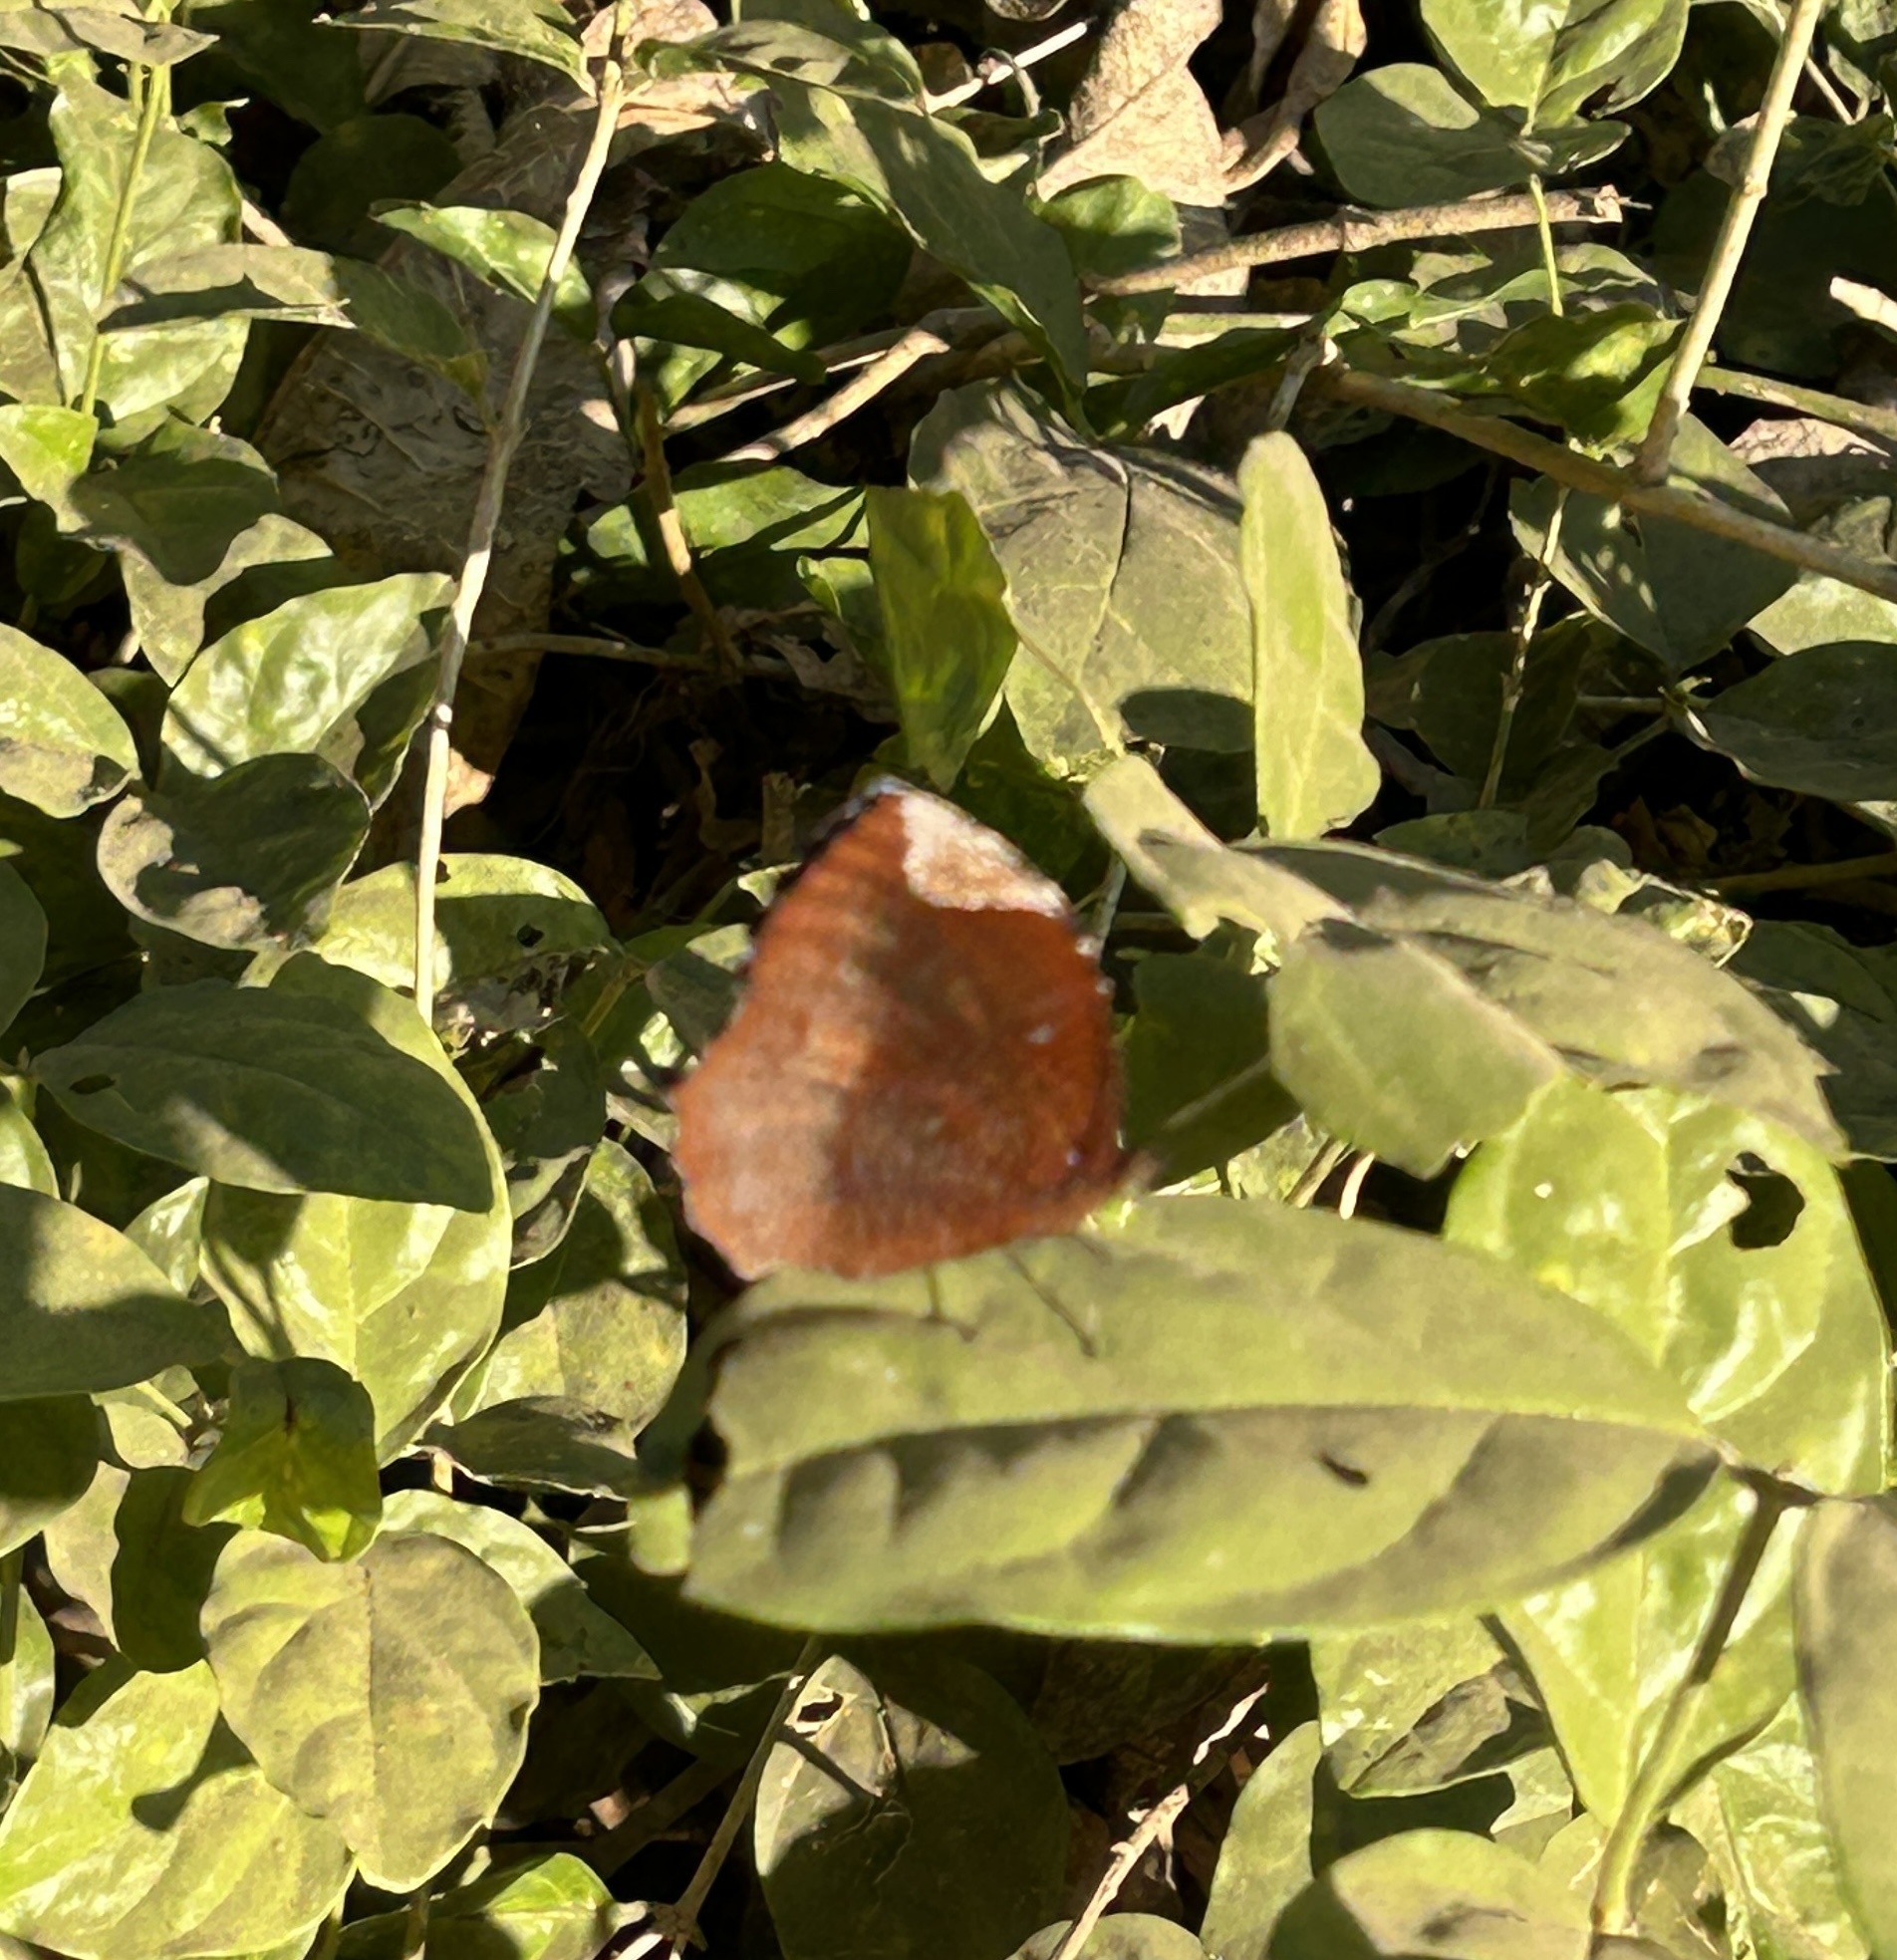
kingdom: Animalia
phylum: Arthropoda
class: Insecta
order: Lepidoptera
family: Nymphalidae
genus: Elymnias
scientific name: Elymnias hypermnestra
